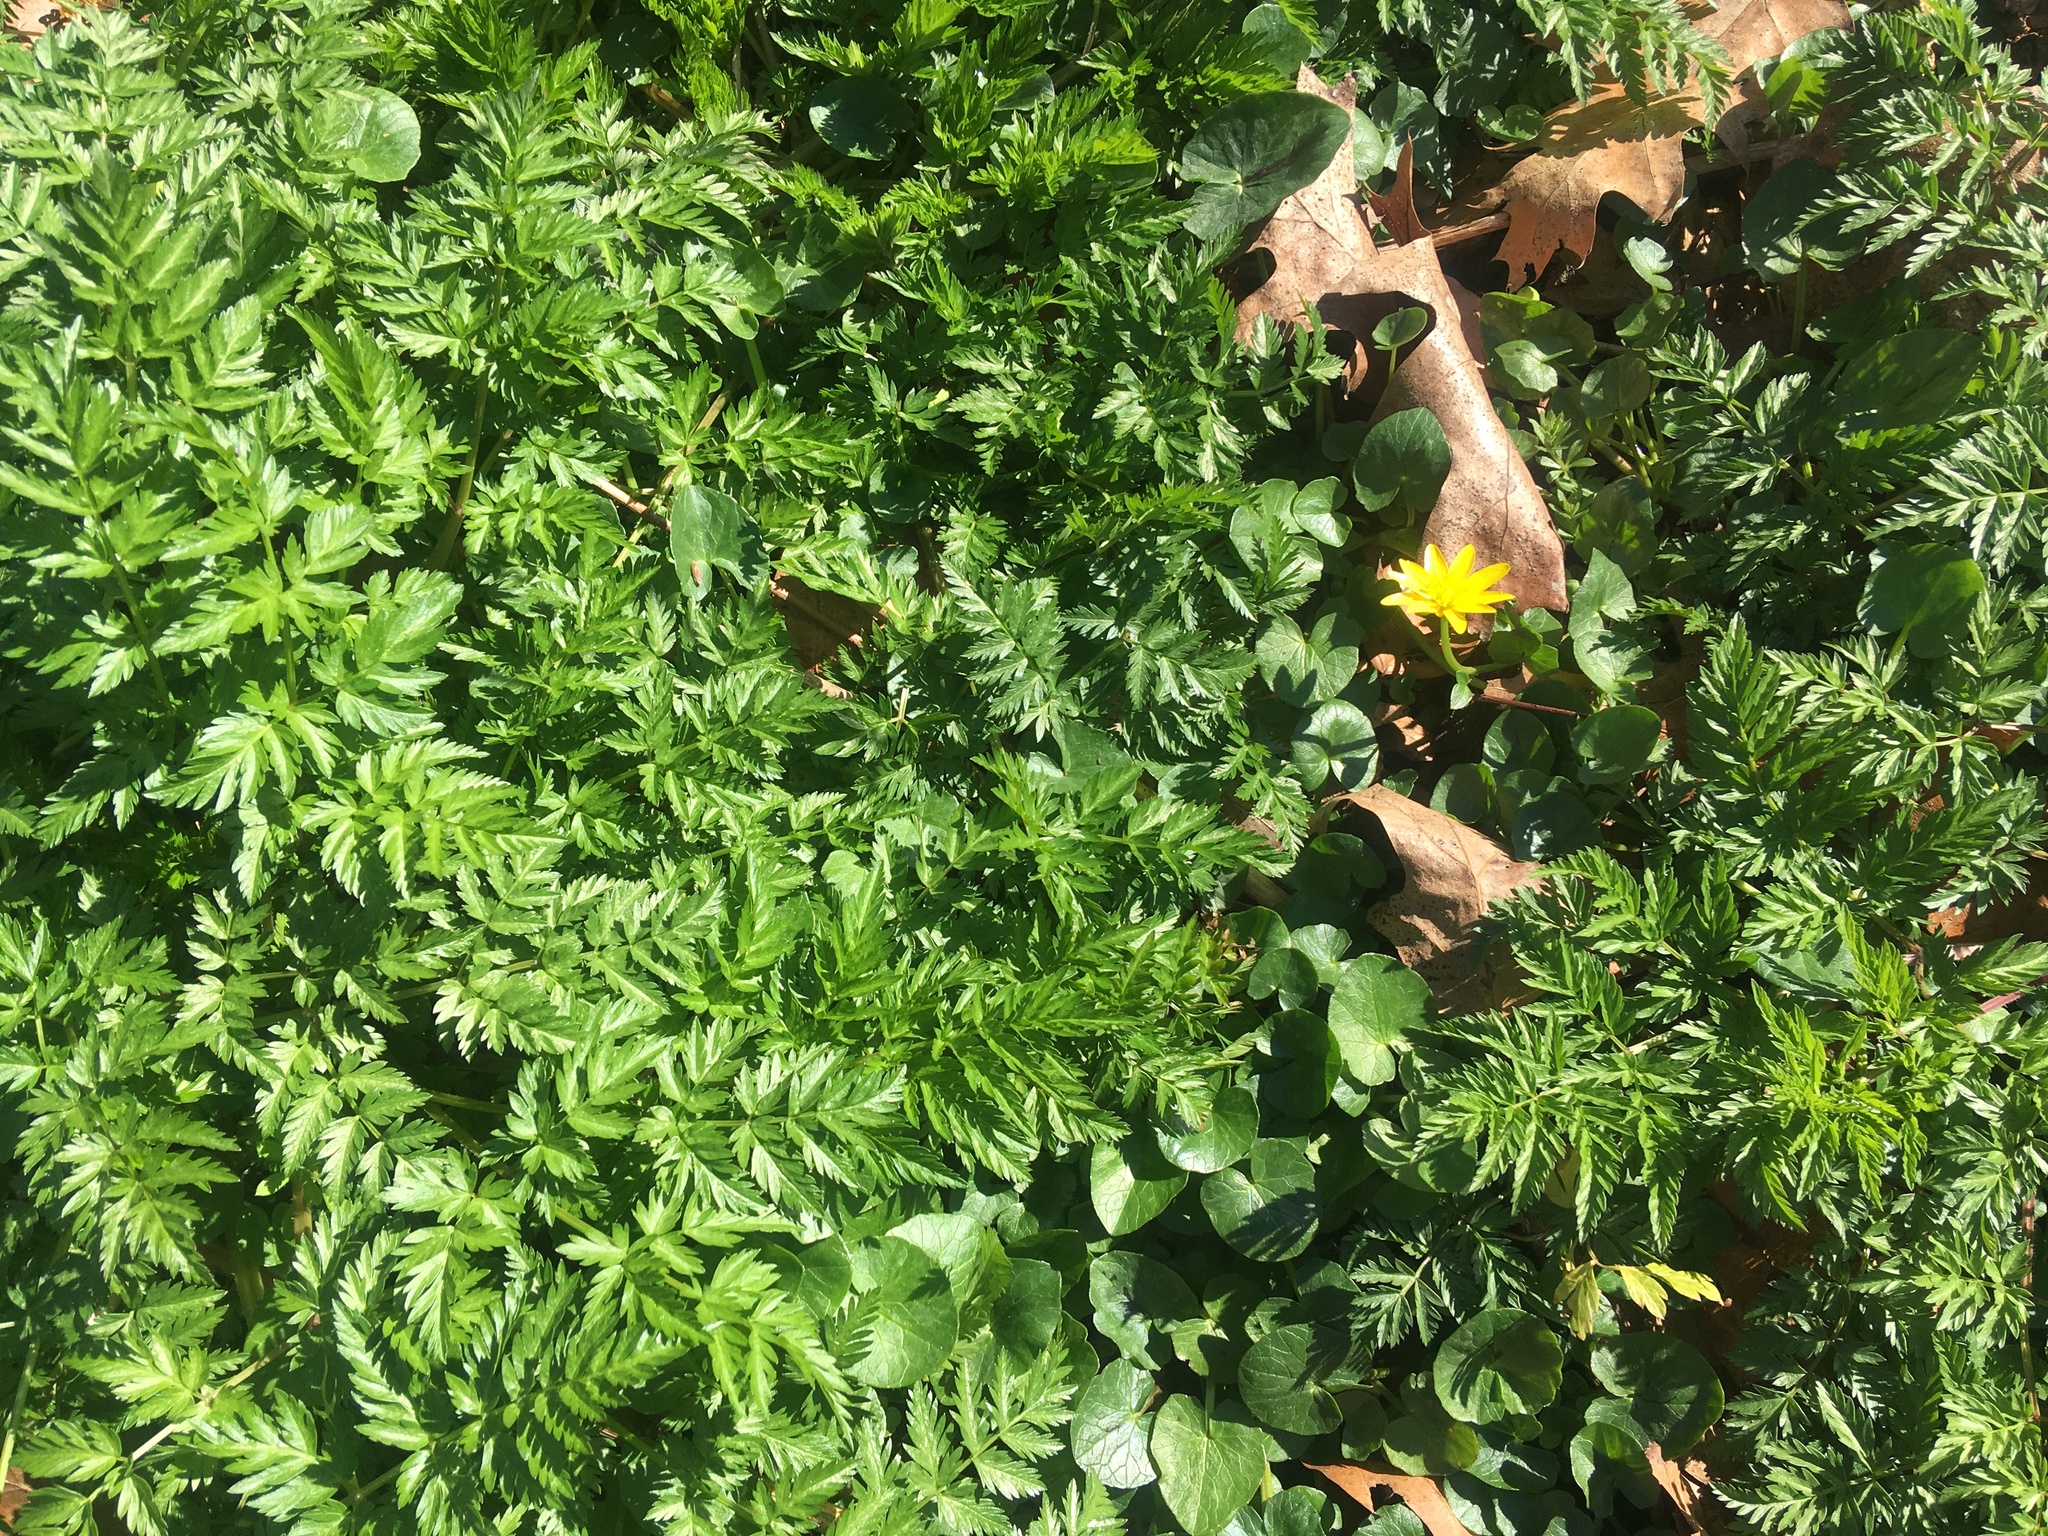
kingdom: Plantae
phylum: Tracheophyta
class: Magnoliopsida
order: Ranunculales
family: Ranunculaceae
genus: Ficaria
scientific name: Ficaria verna
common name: Lesser celandine
